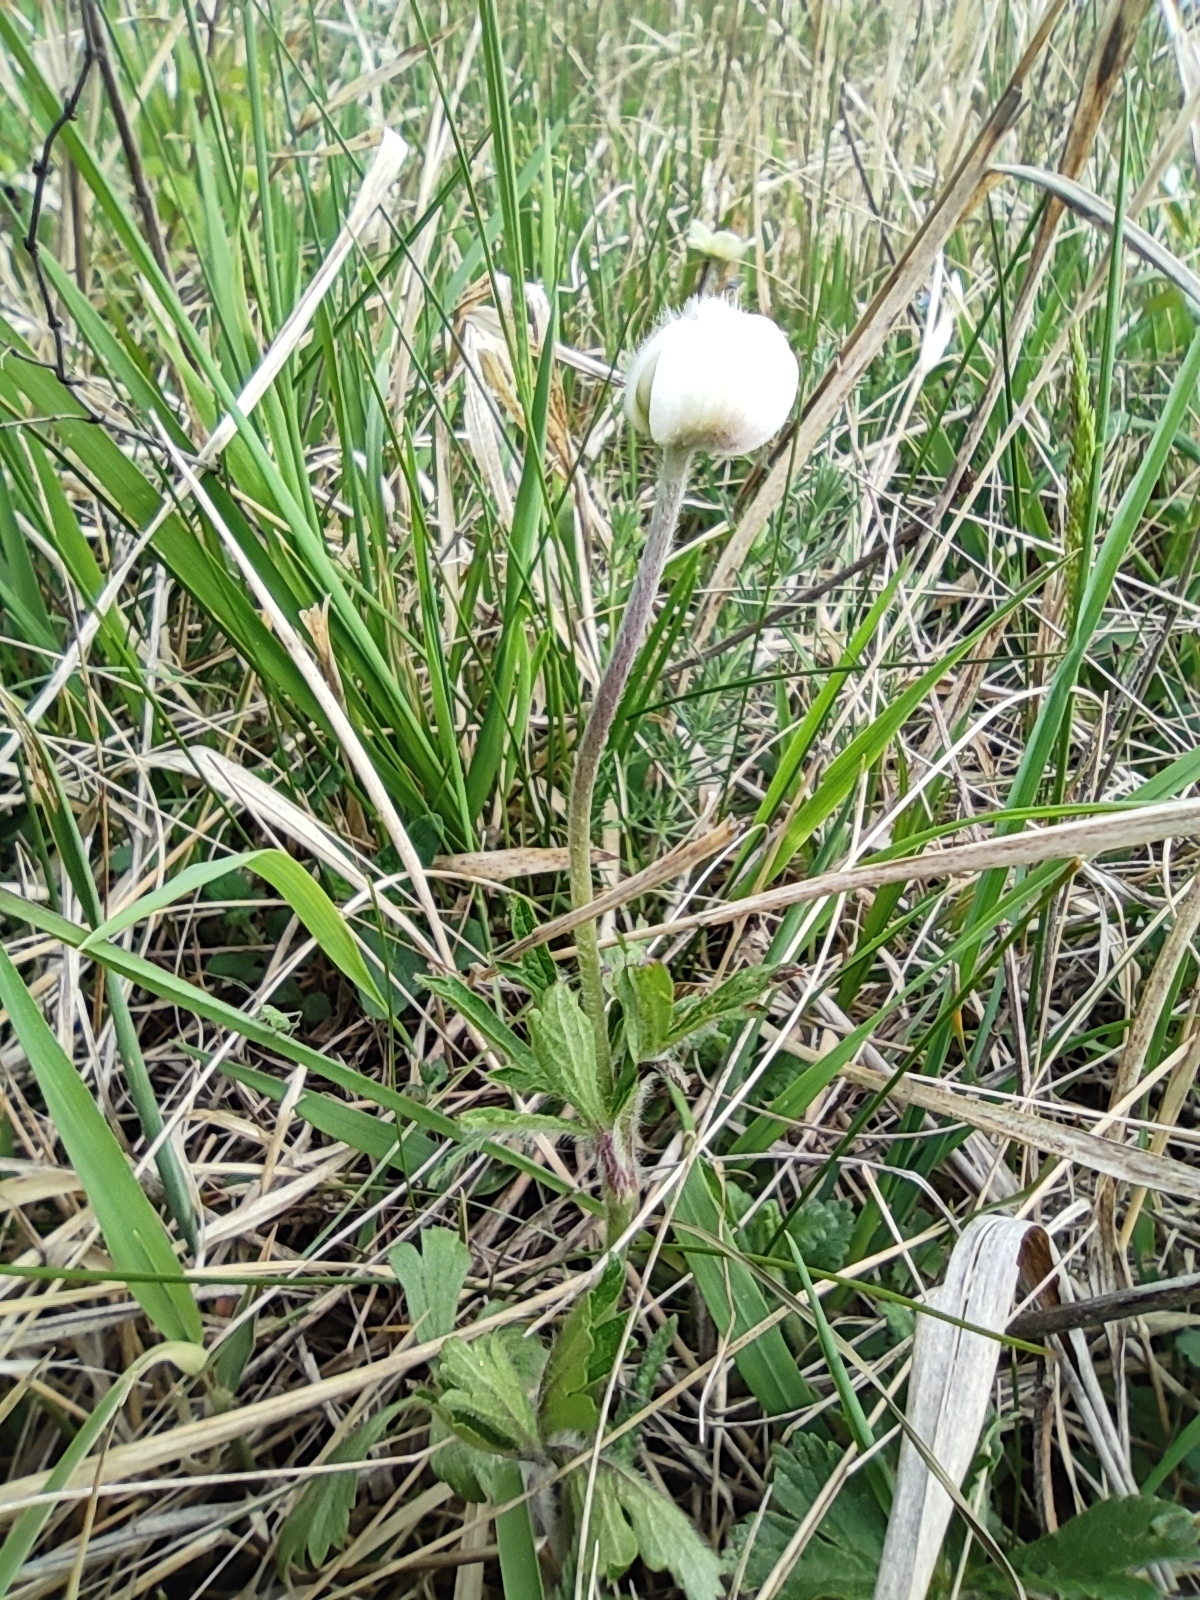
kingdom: Plantae
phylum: Tracheophyta
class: Magnoliopsida
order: Ranunculales
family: Ranunculaceae
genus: Anemone
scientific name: Anemone sylvestris
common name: Snowdrop anemone
